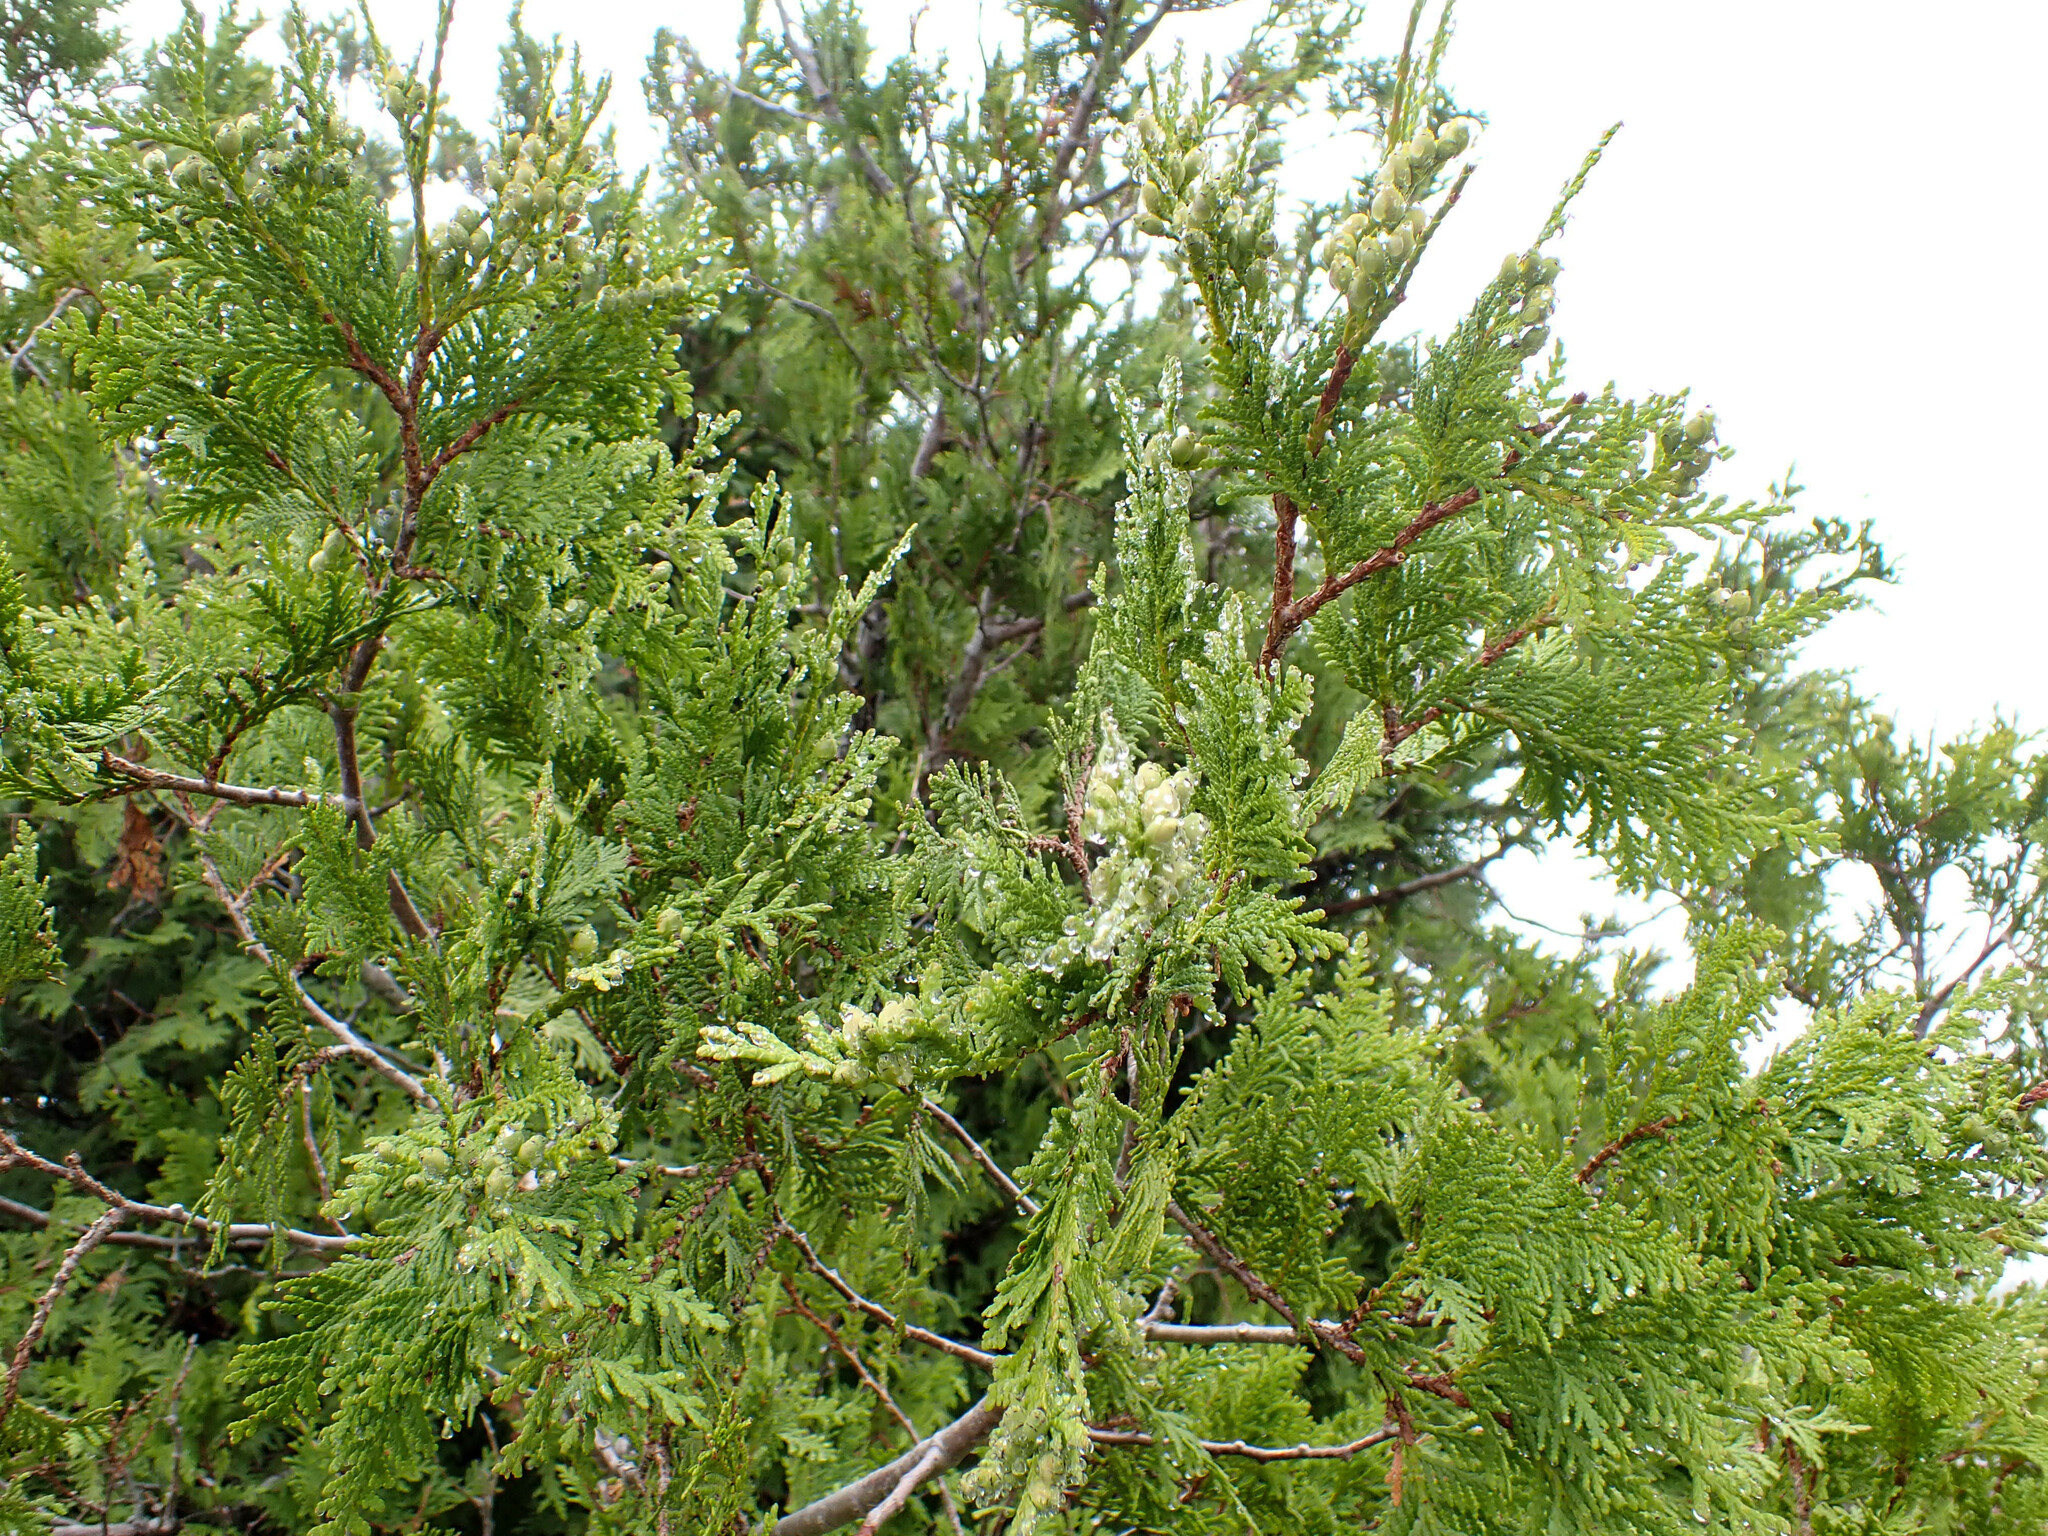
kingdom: Plantae
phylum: Tracheophyta
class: Pinopsida
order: Pinales
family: Cupressaceae
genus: Thuja
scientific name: Thuja occidentalis
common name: Northern white-cedar
